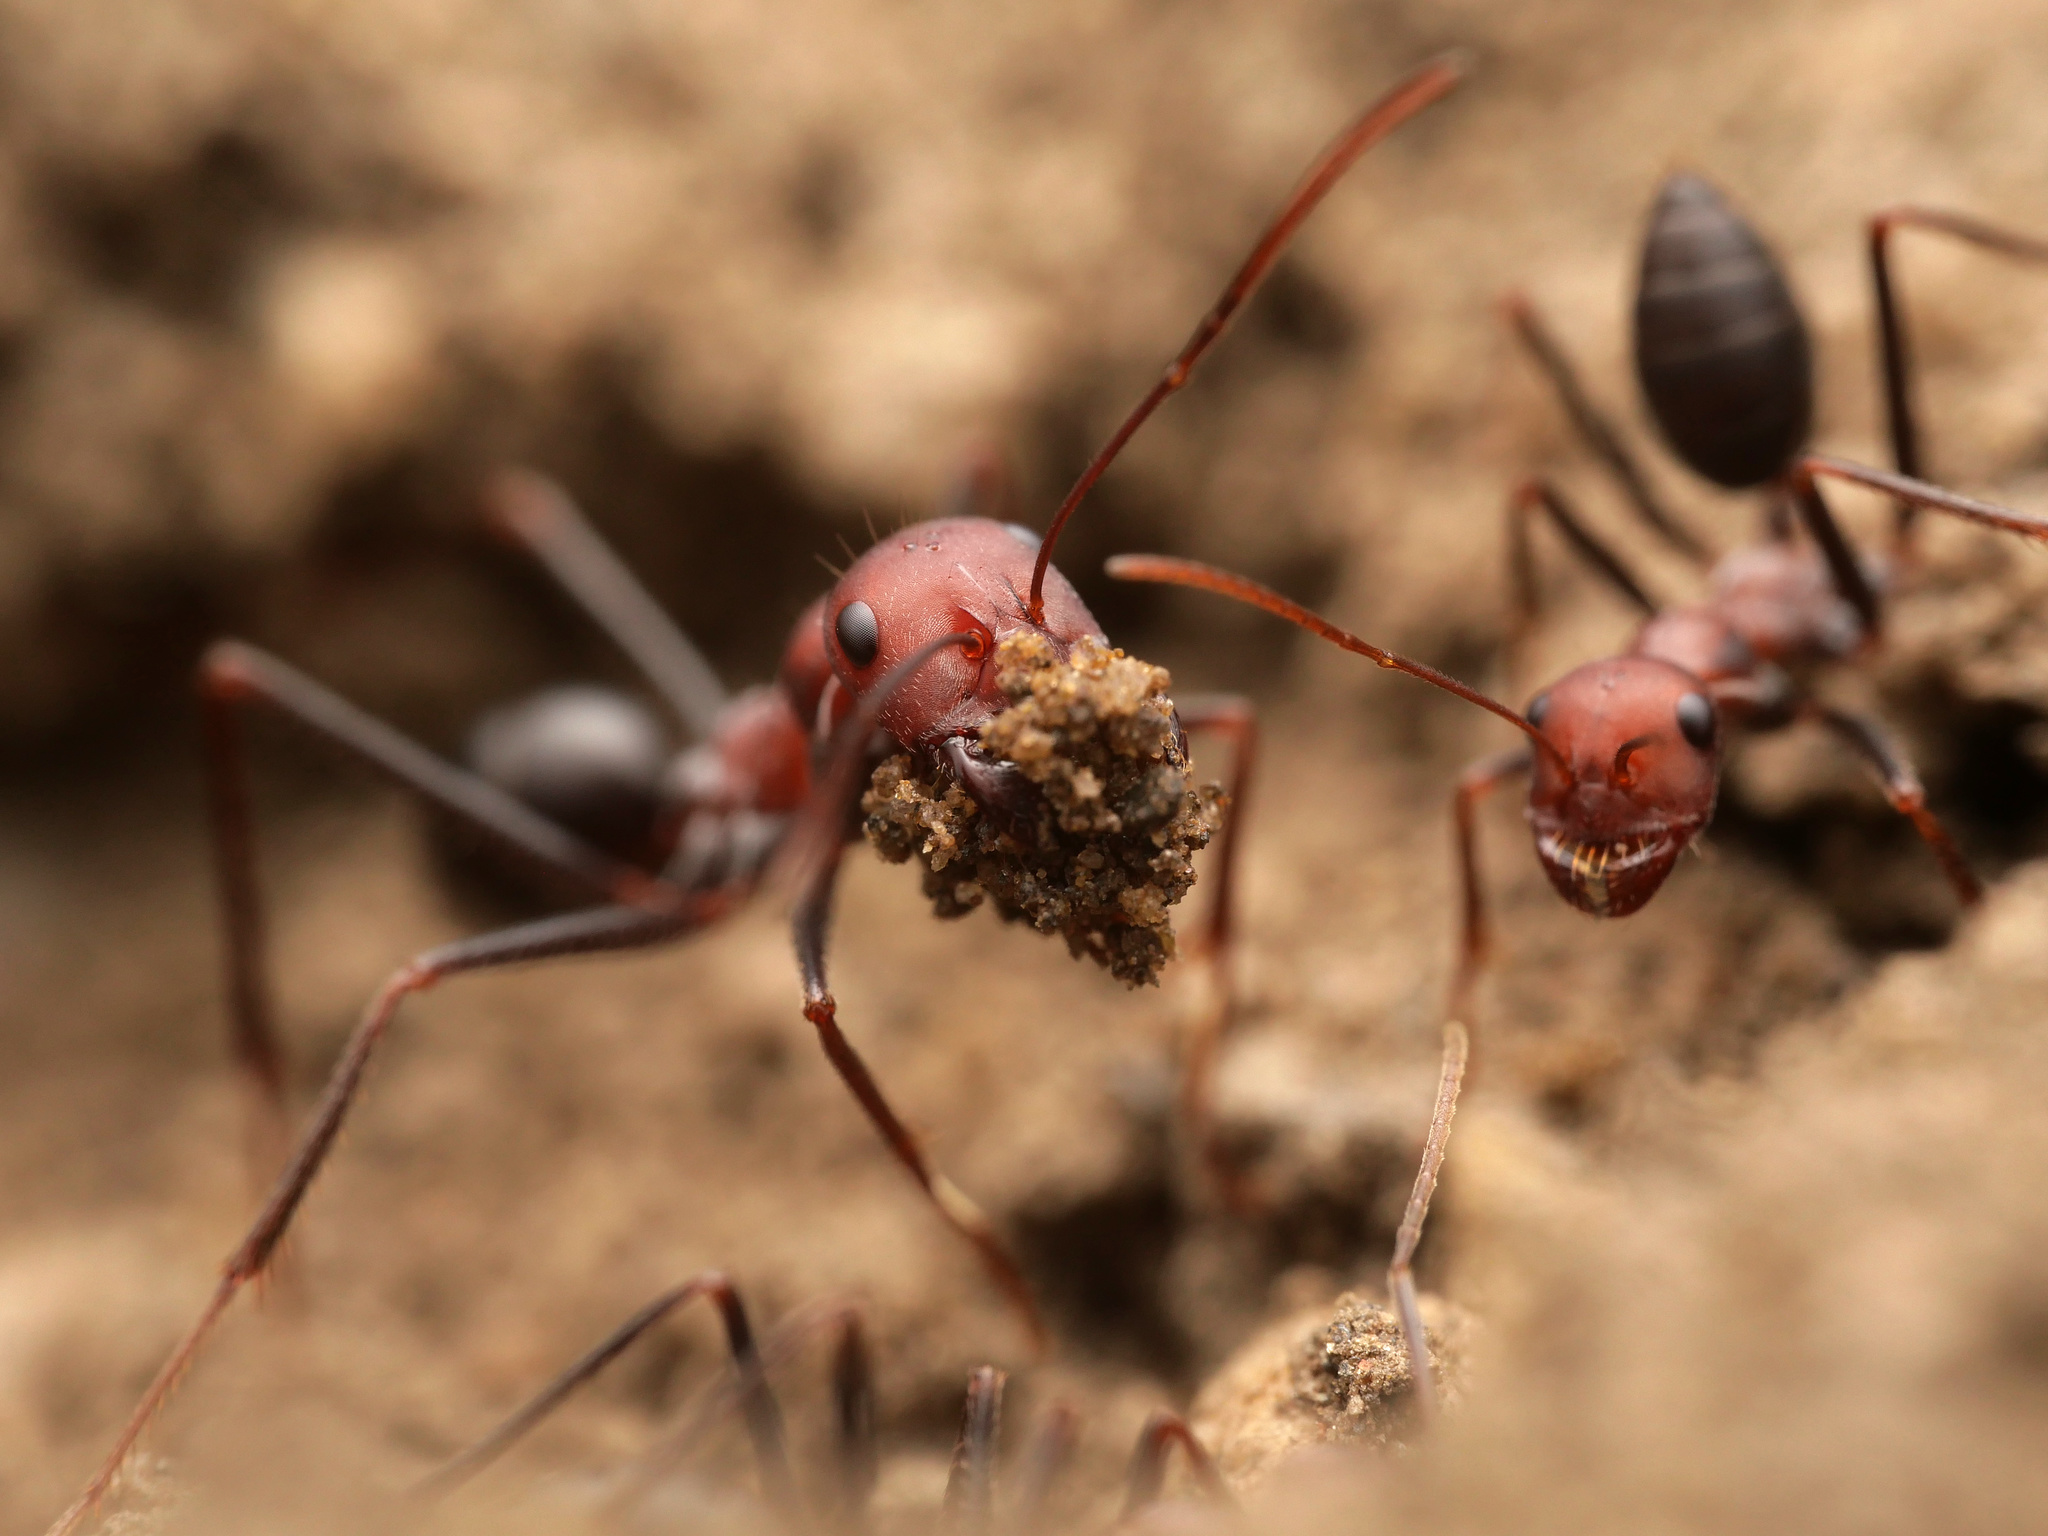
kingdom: Animalia
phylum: Arthropoda
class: Insecta
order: Hymenoptera
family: Formicidae
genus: Cataglyphis
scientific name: Cataglyphis nodus
